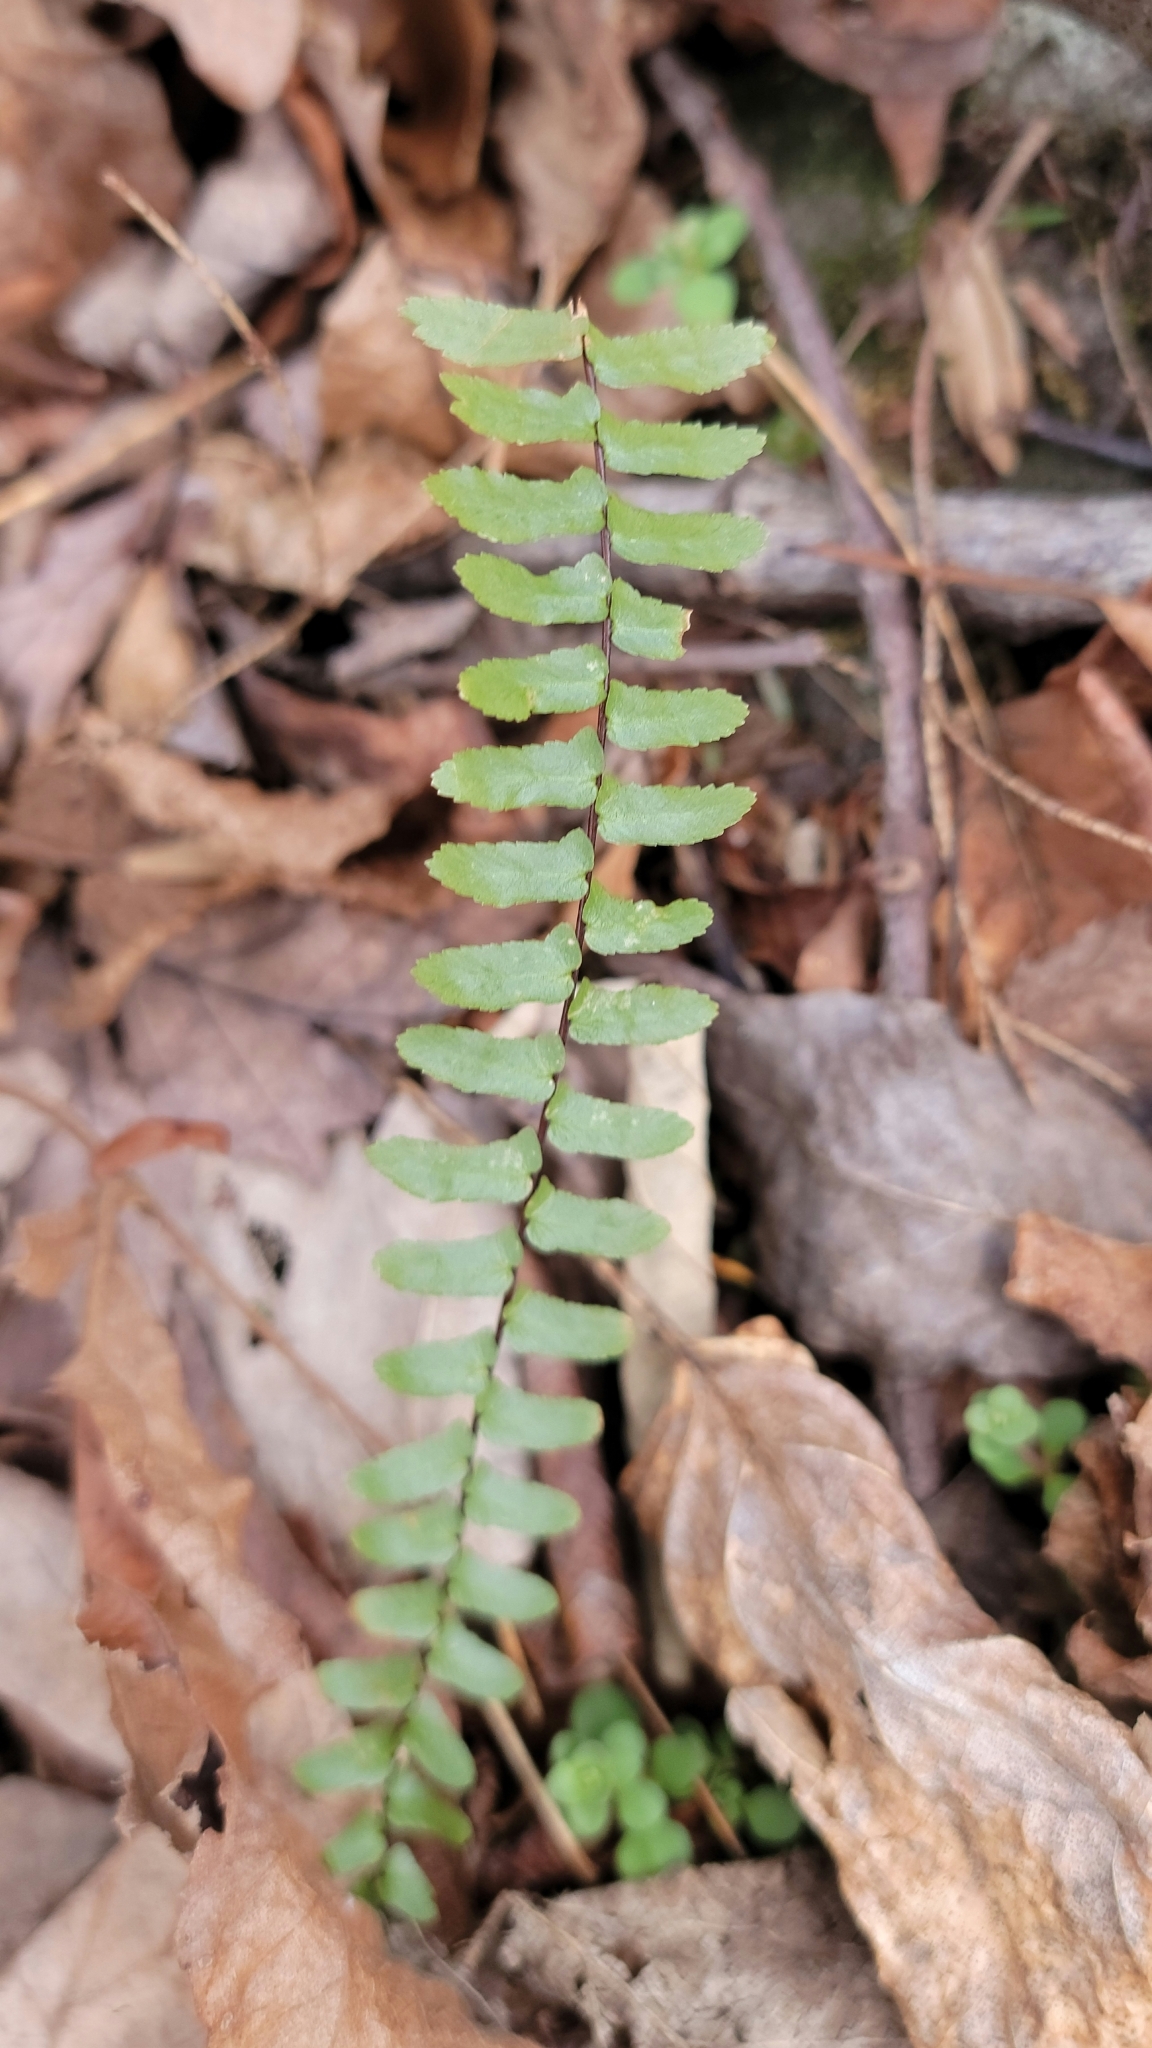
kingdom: Plantae
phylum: Tracheophyta
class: Polypodiopsida
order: Polypodiales
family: Aspleniaceae
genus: Asplenium
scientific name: Asplenium platyneuron
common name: Ebony spleenwort
